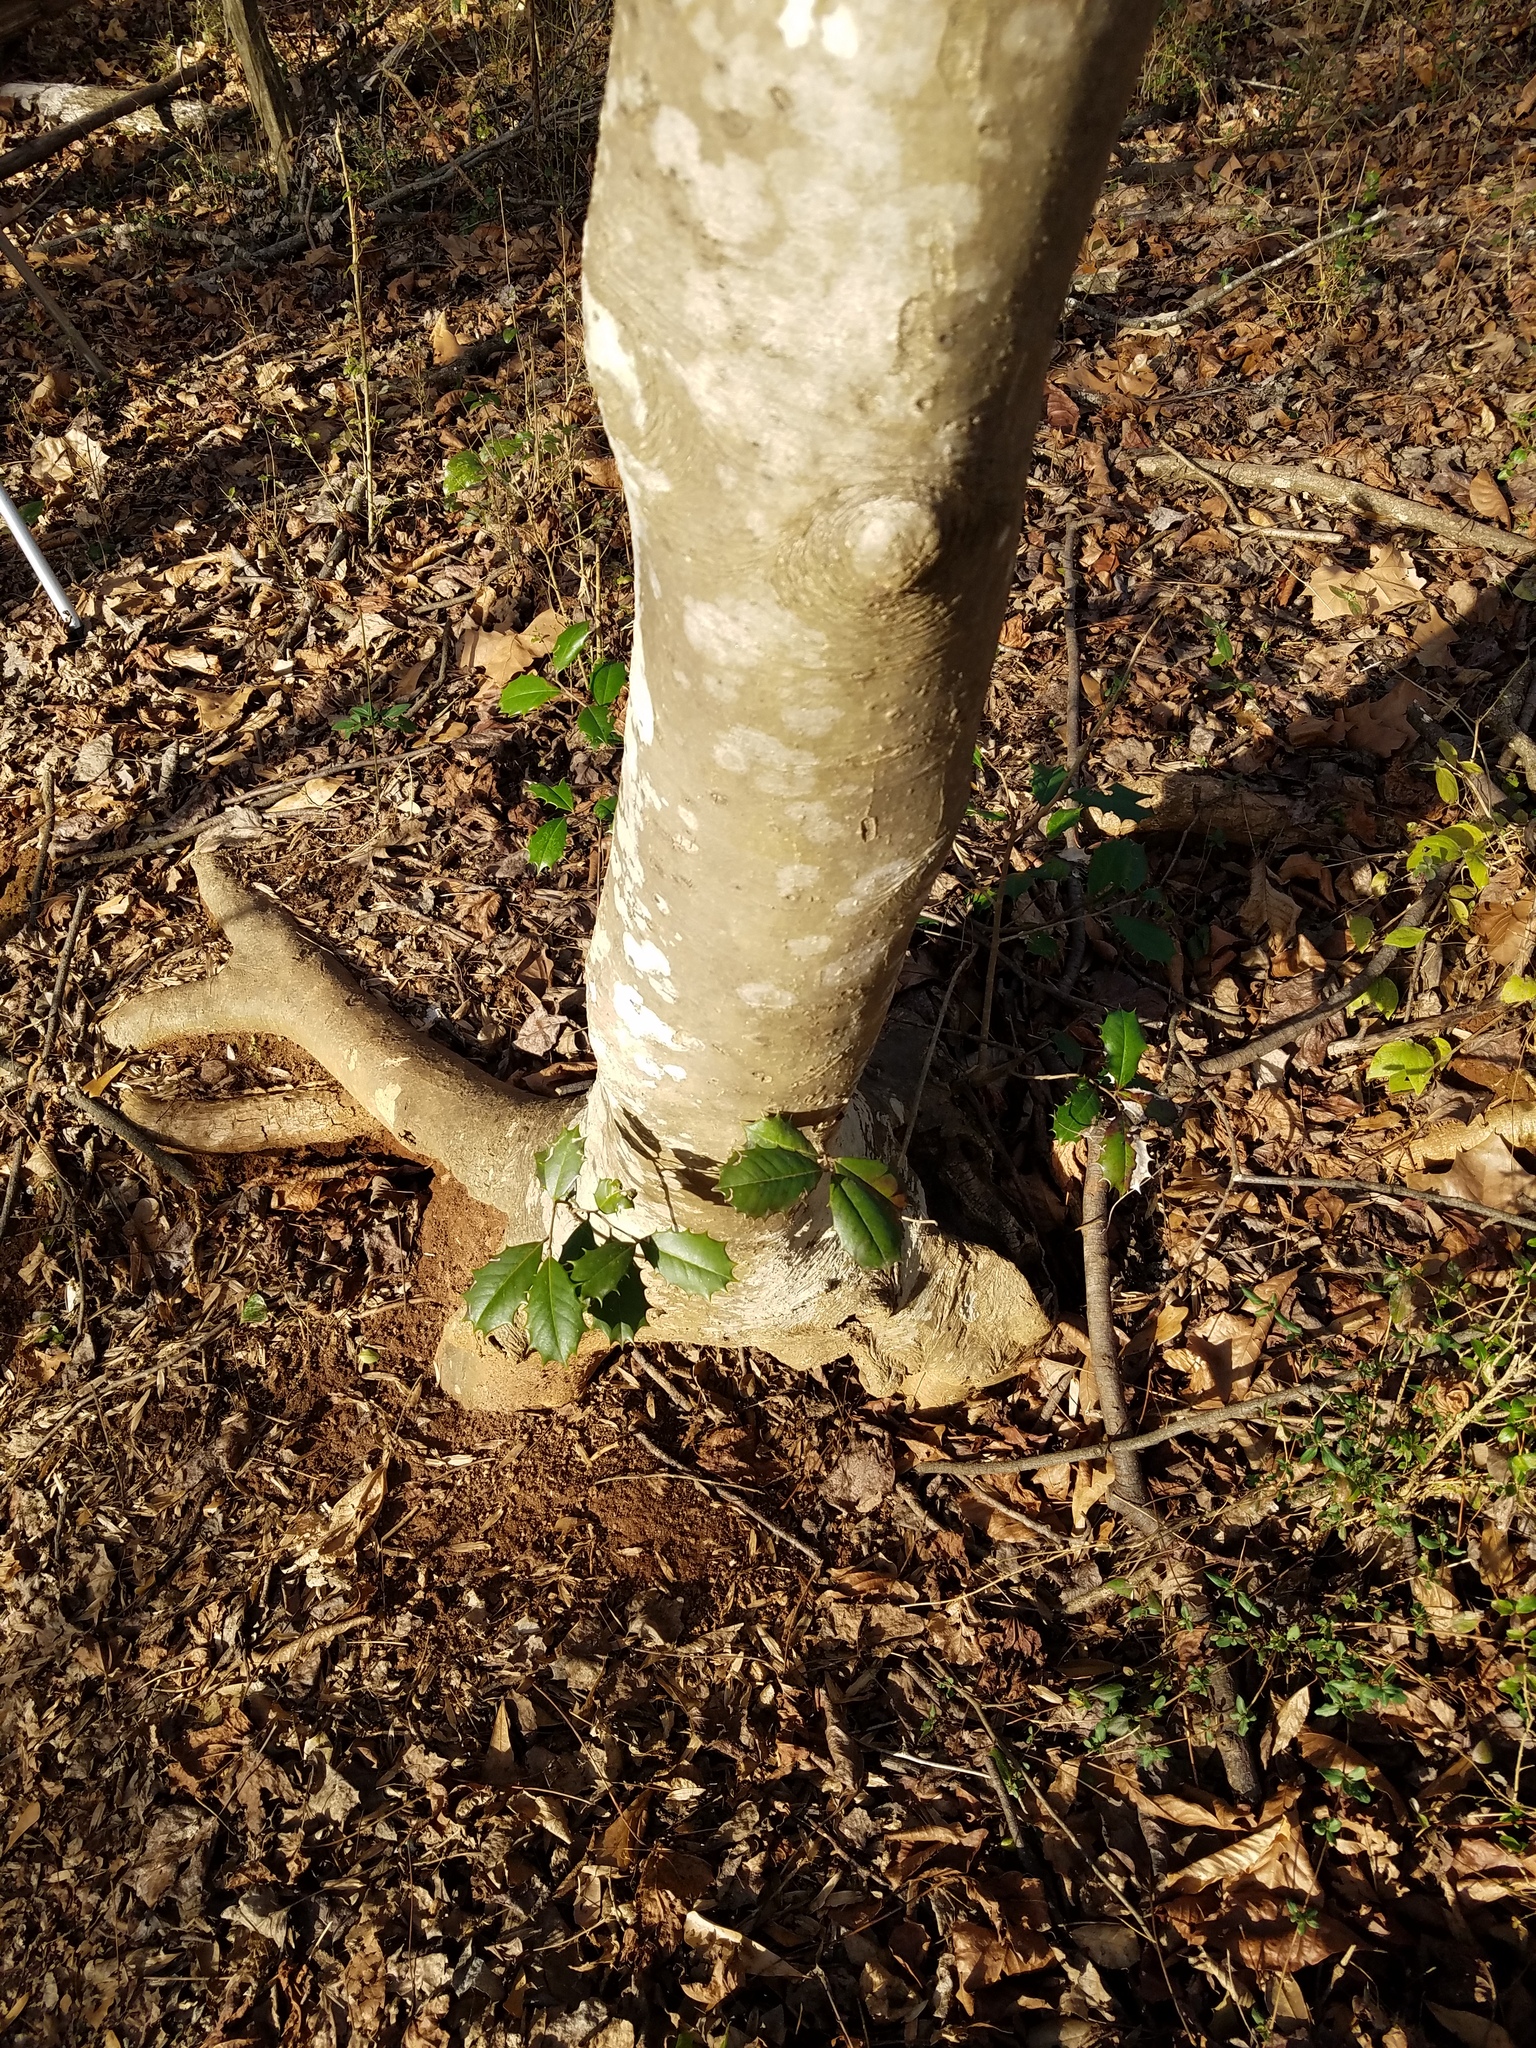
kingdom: Plantae
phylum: Tracheophyta
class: Magnoliopsida
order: Aquifoliales
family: Aquifoliaceae
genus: Ilex
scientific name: Ilex opaca
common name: American holly
